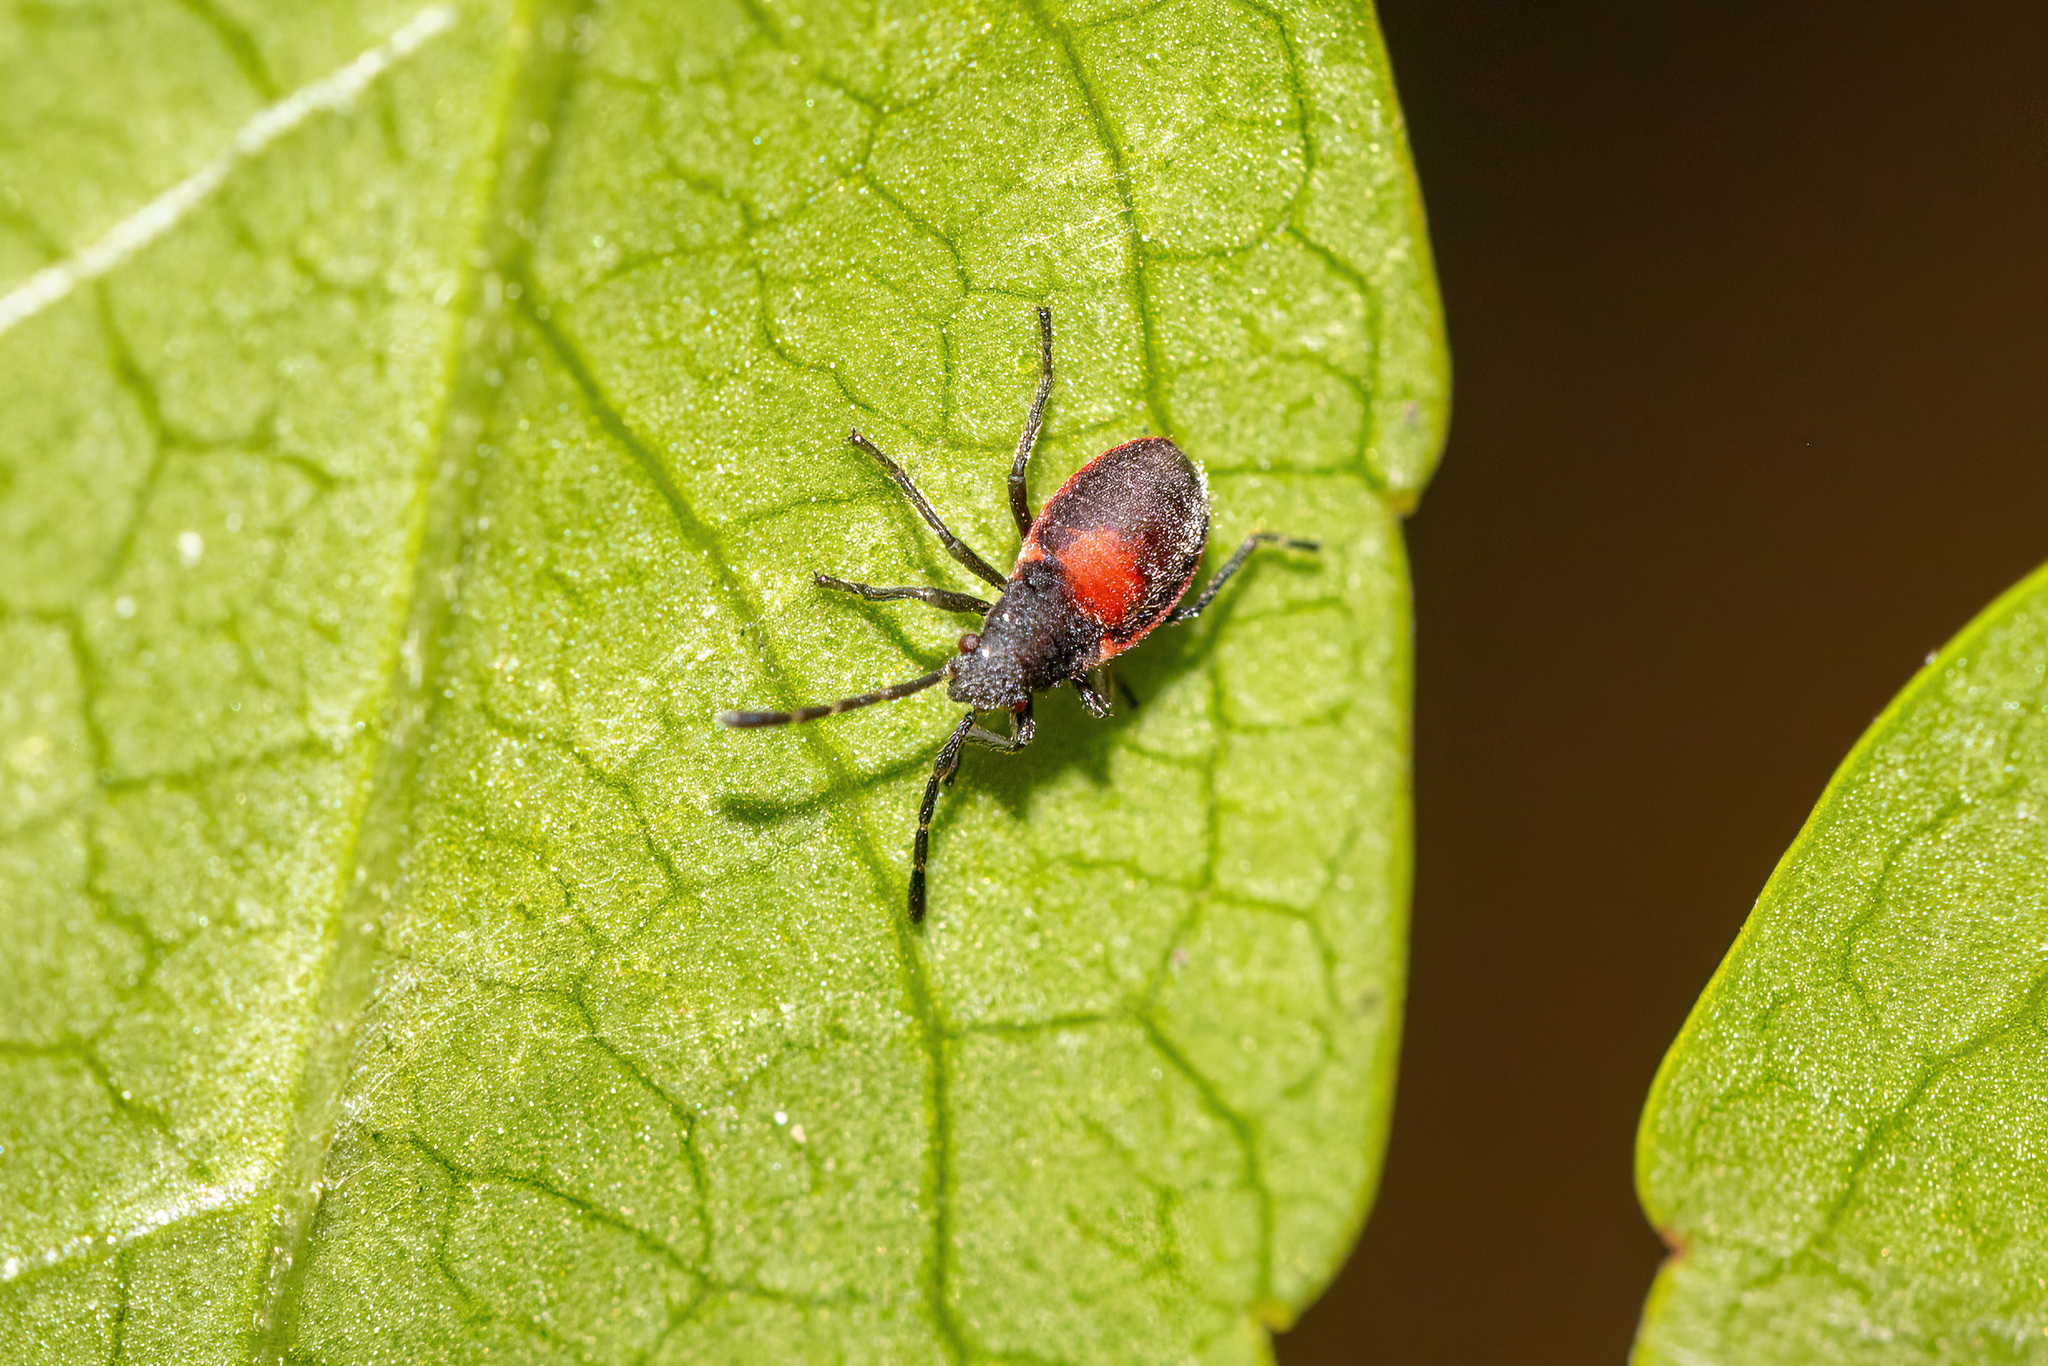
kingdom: Animalia
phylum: Arthropoda
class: Insecta
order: Hemiptera
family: Largidae
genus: Stenomacra
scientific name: Stenomacra marginella
